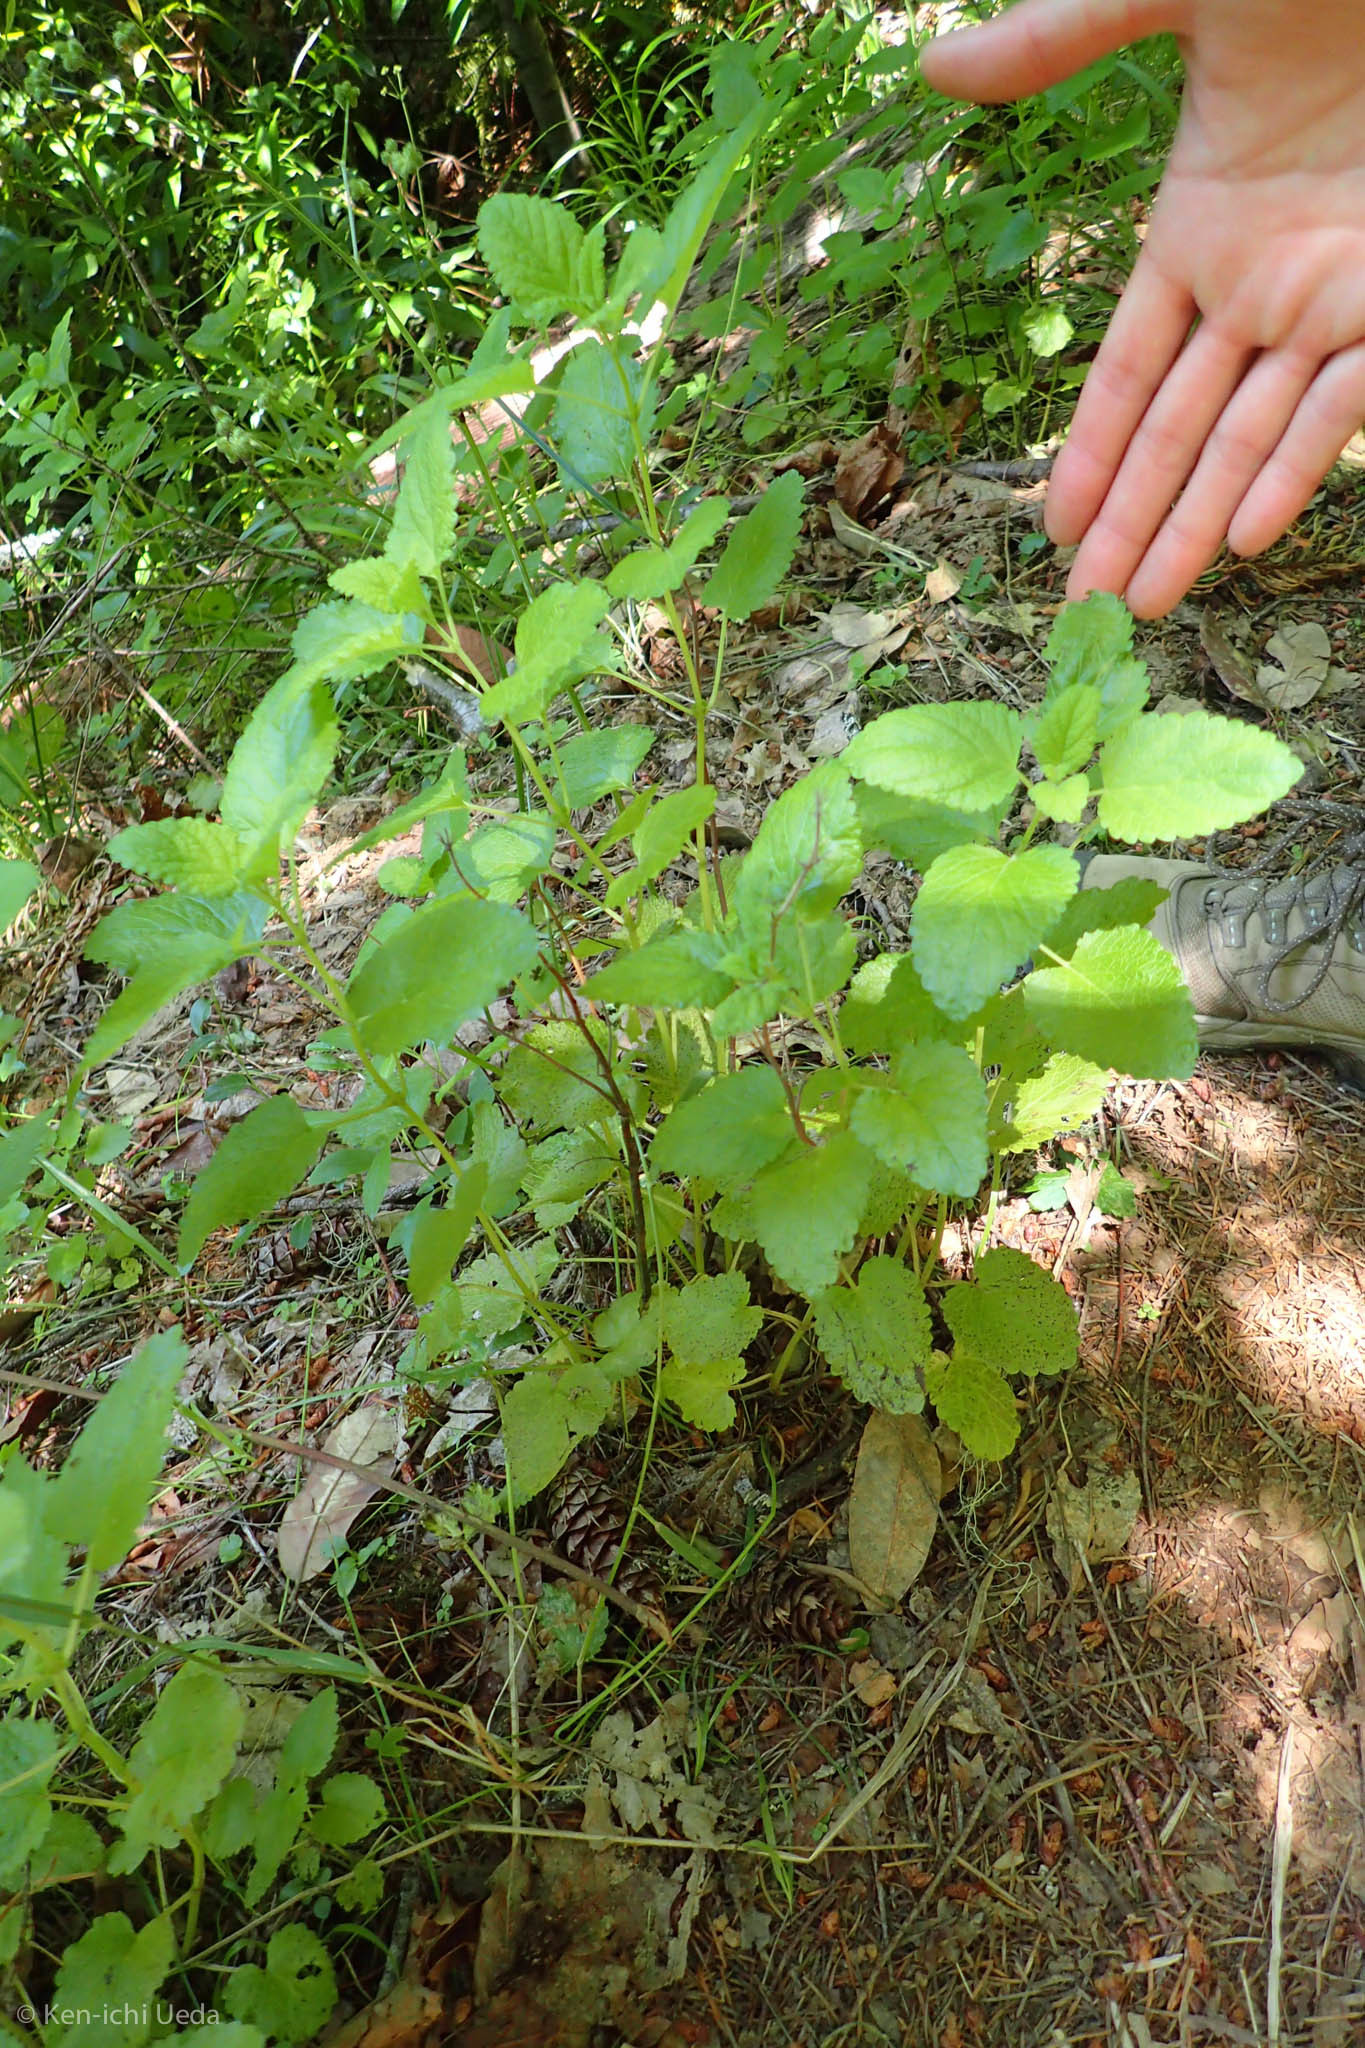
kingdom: Plantae
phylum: Tracheophyta
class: Magnoliopsida
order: Lamiales
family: Lamiaceae
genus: Melissa
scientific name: Melissa officinalis
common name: Balm
